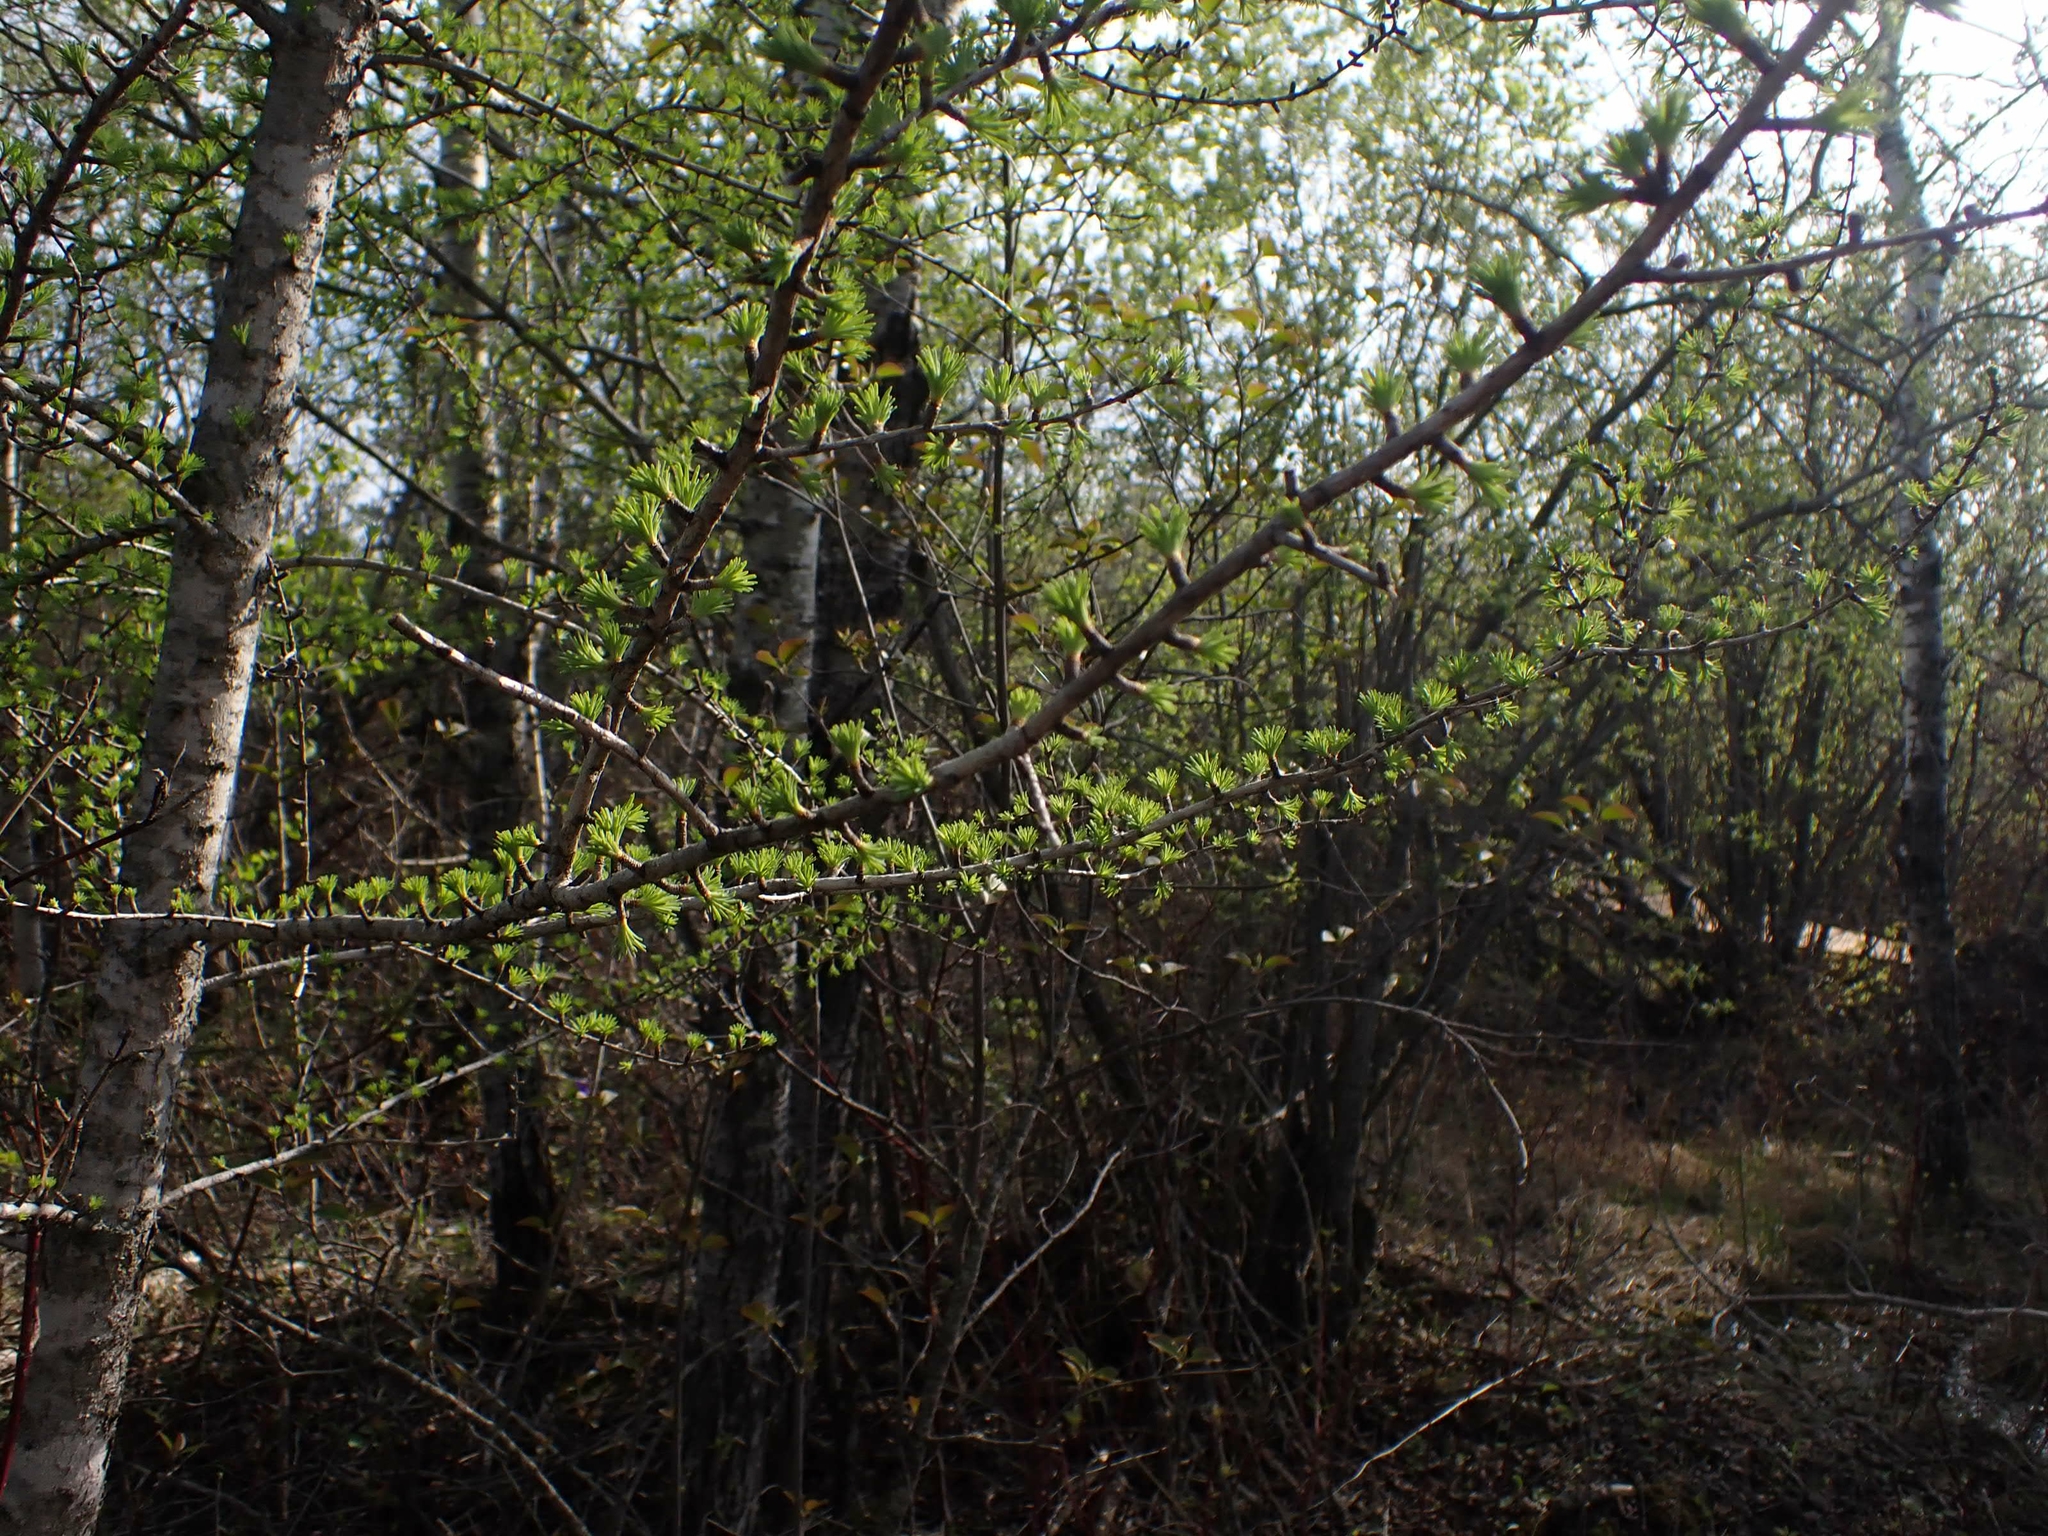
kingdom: Plantae
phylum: Tracheophyta
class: Pinopsida
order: Pinales
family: Pinaceae
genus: Larix
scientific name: Larix laricina
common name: American larch
